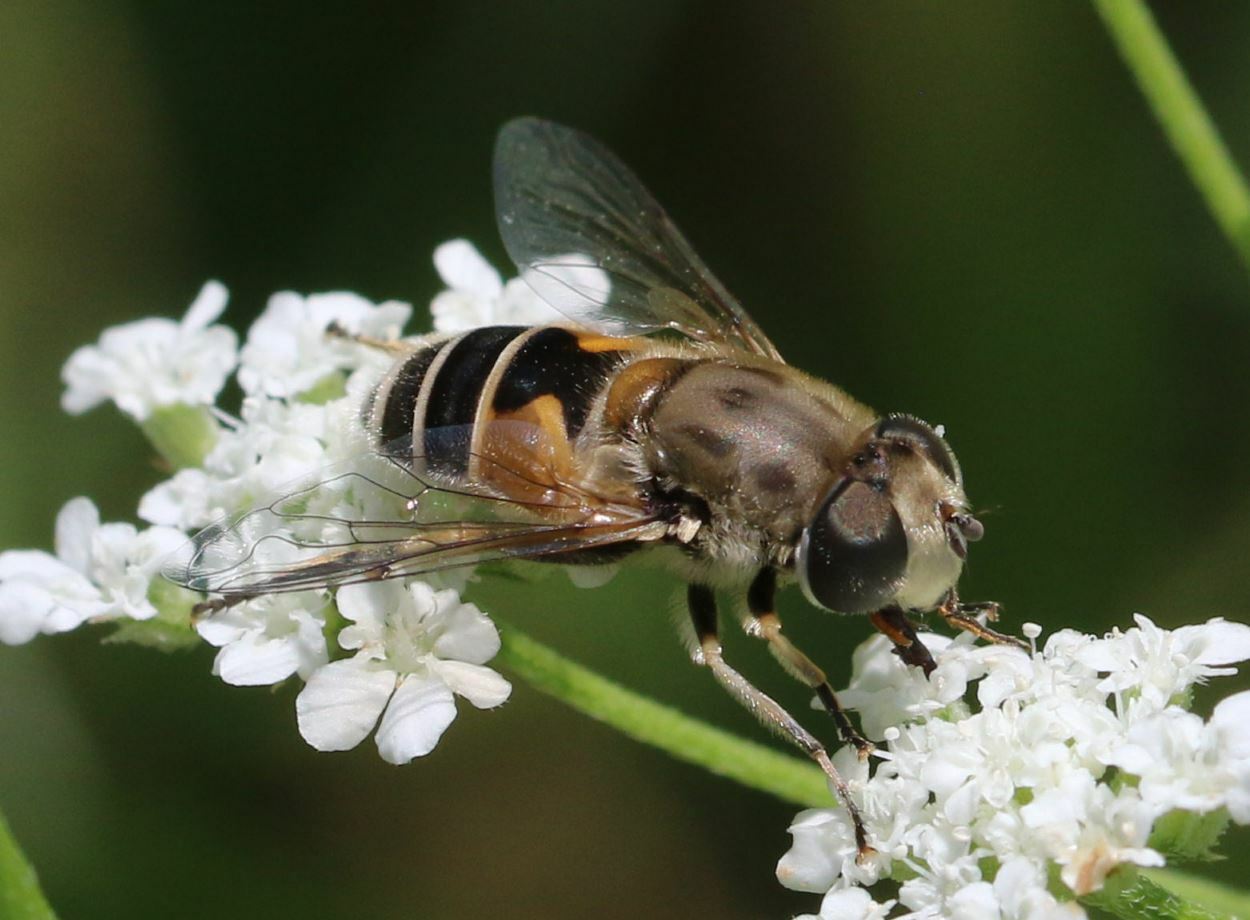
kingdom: Animalia
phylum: Arthropoda
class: Insecta
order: Diptera
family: Syrphidae
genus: Eristalis
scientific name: Eristalis arbustorum
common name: Hover fly
